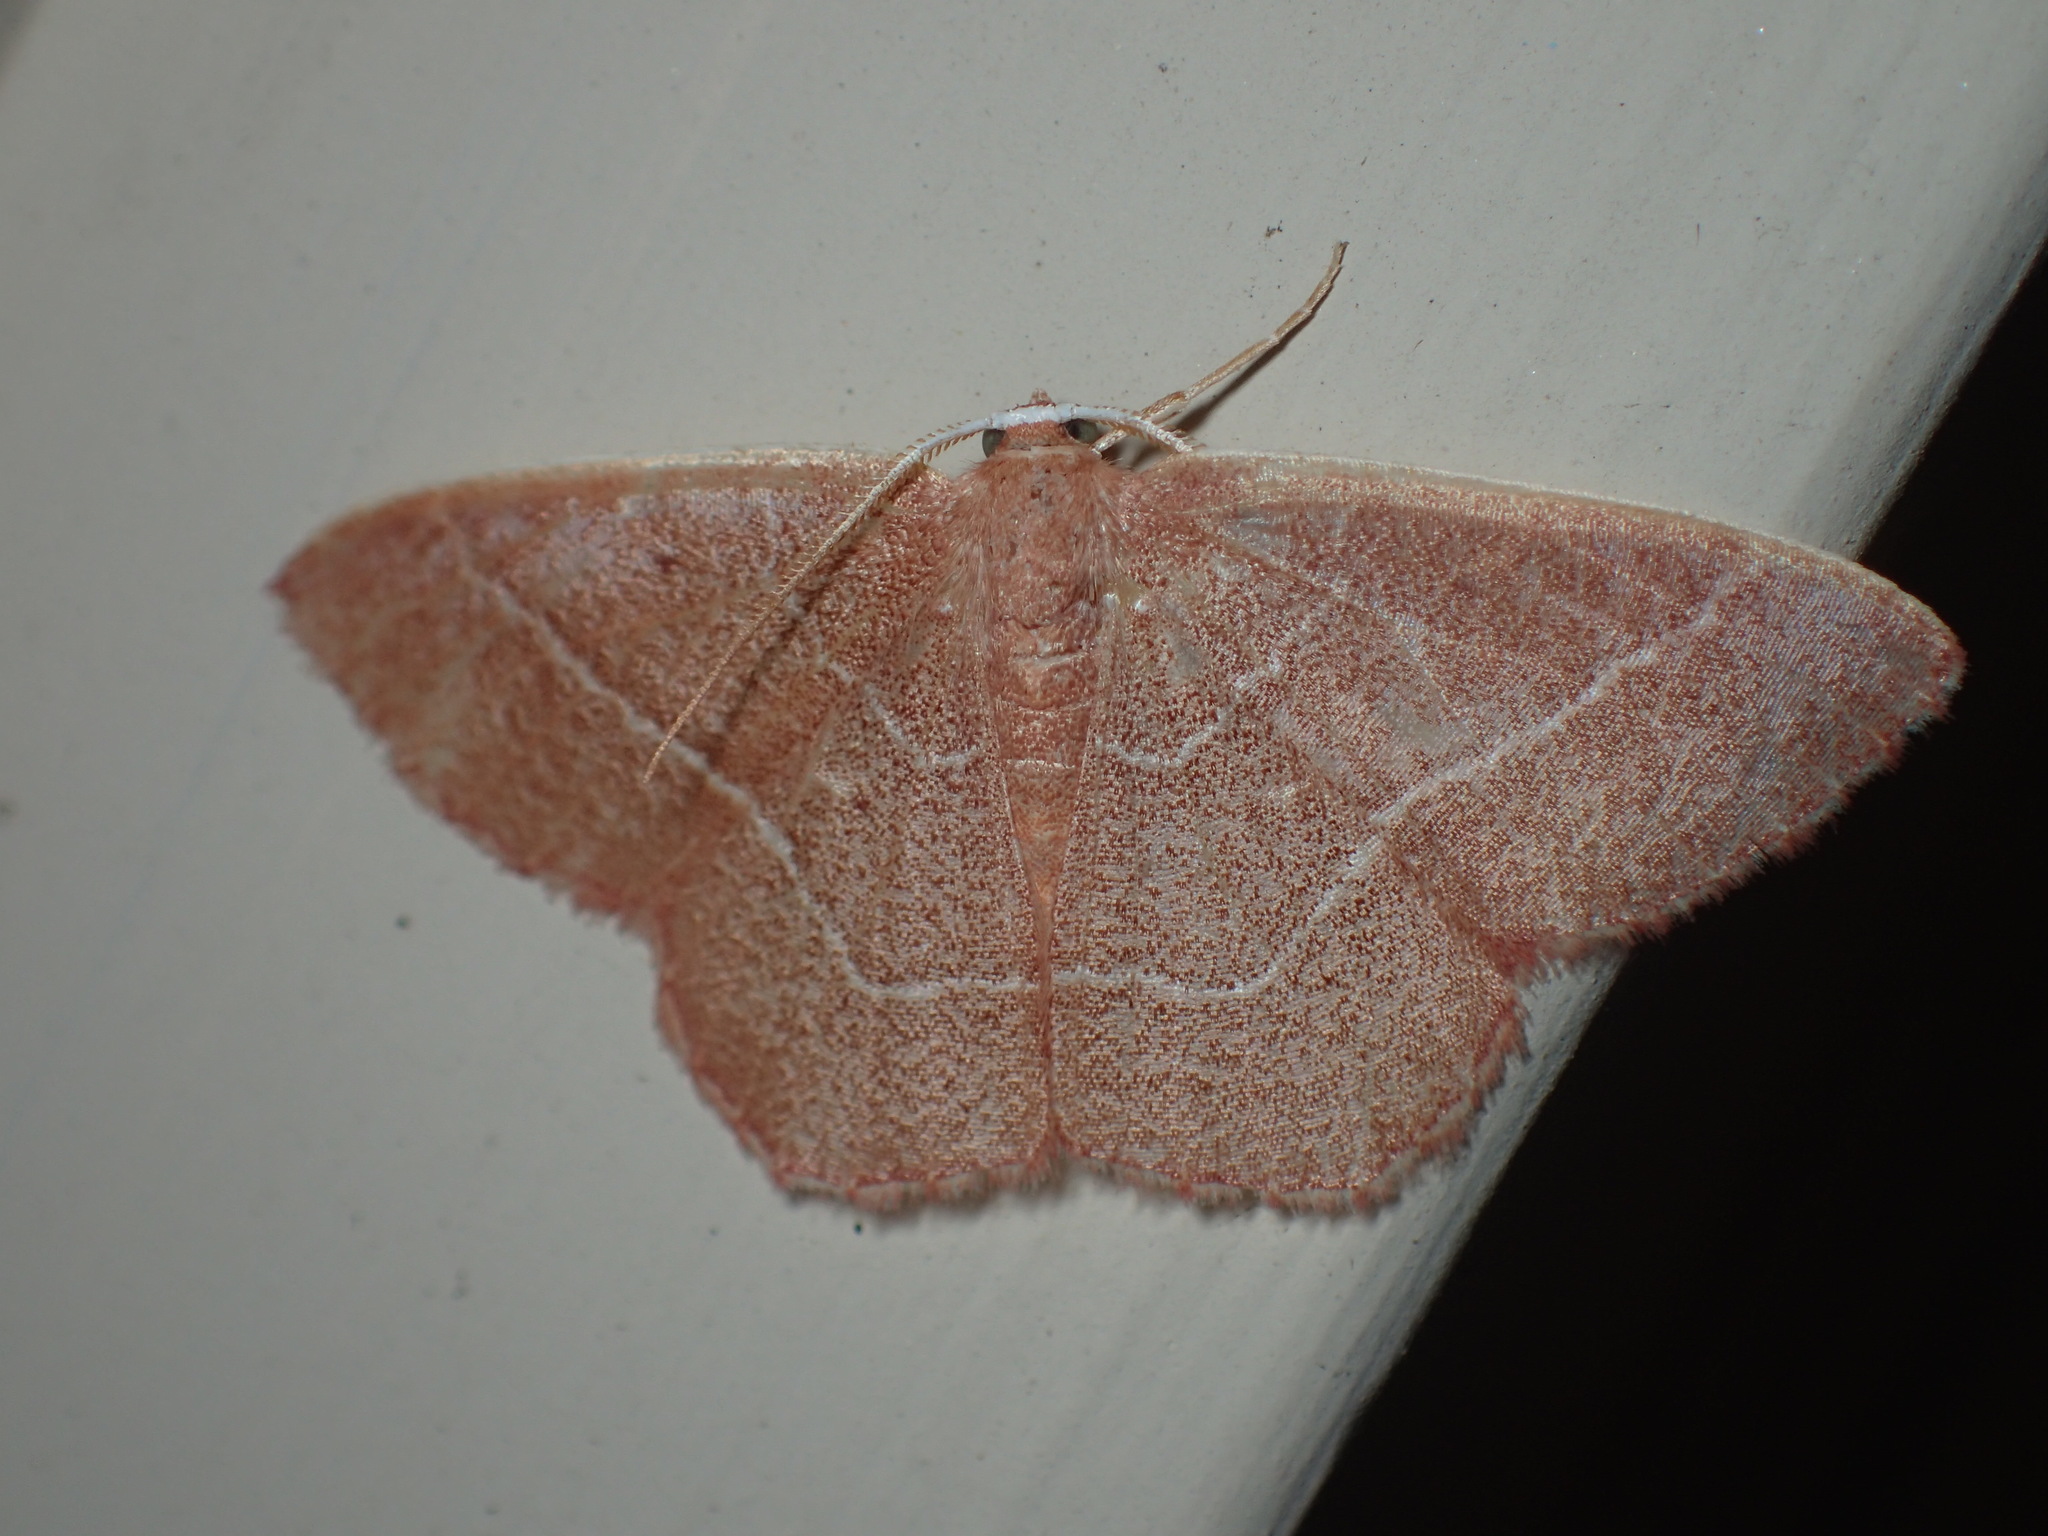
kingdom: Animalia
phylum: Arthropoda
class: Insecta
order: Lepidoptera
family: Geometridae
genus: Nemoria
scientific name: Nemoria bistriaria
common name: Red-fringed emerald
